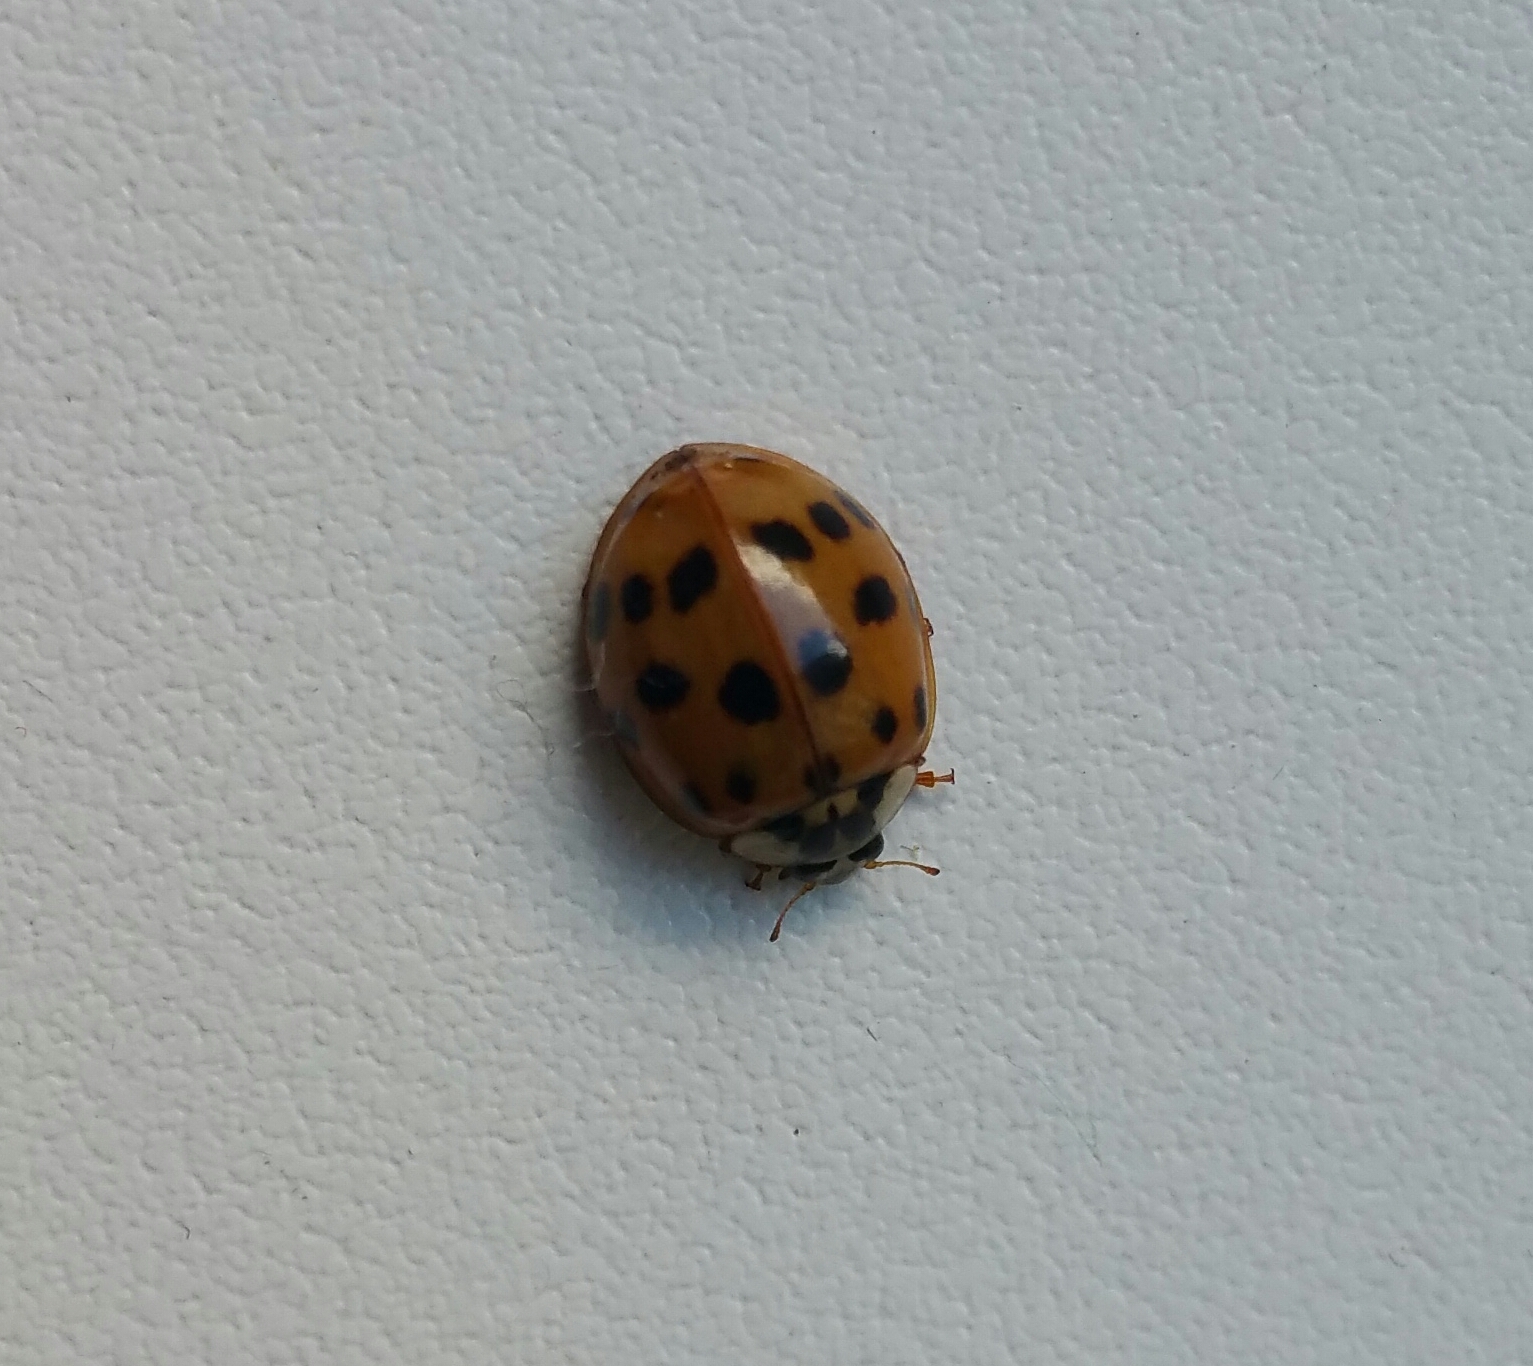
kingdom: Animalia
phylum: Arthropoda
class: Insecta
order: Coleoptera
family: Coccinellidae
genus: Harmonia
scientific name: Harmonia axyridis
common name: Harlequin ladybird
